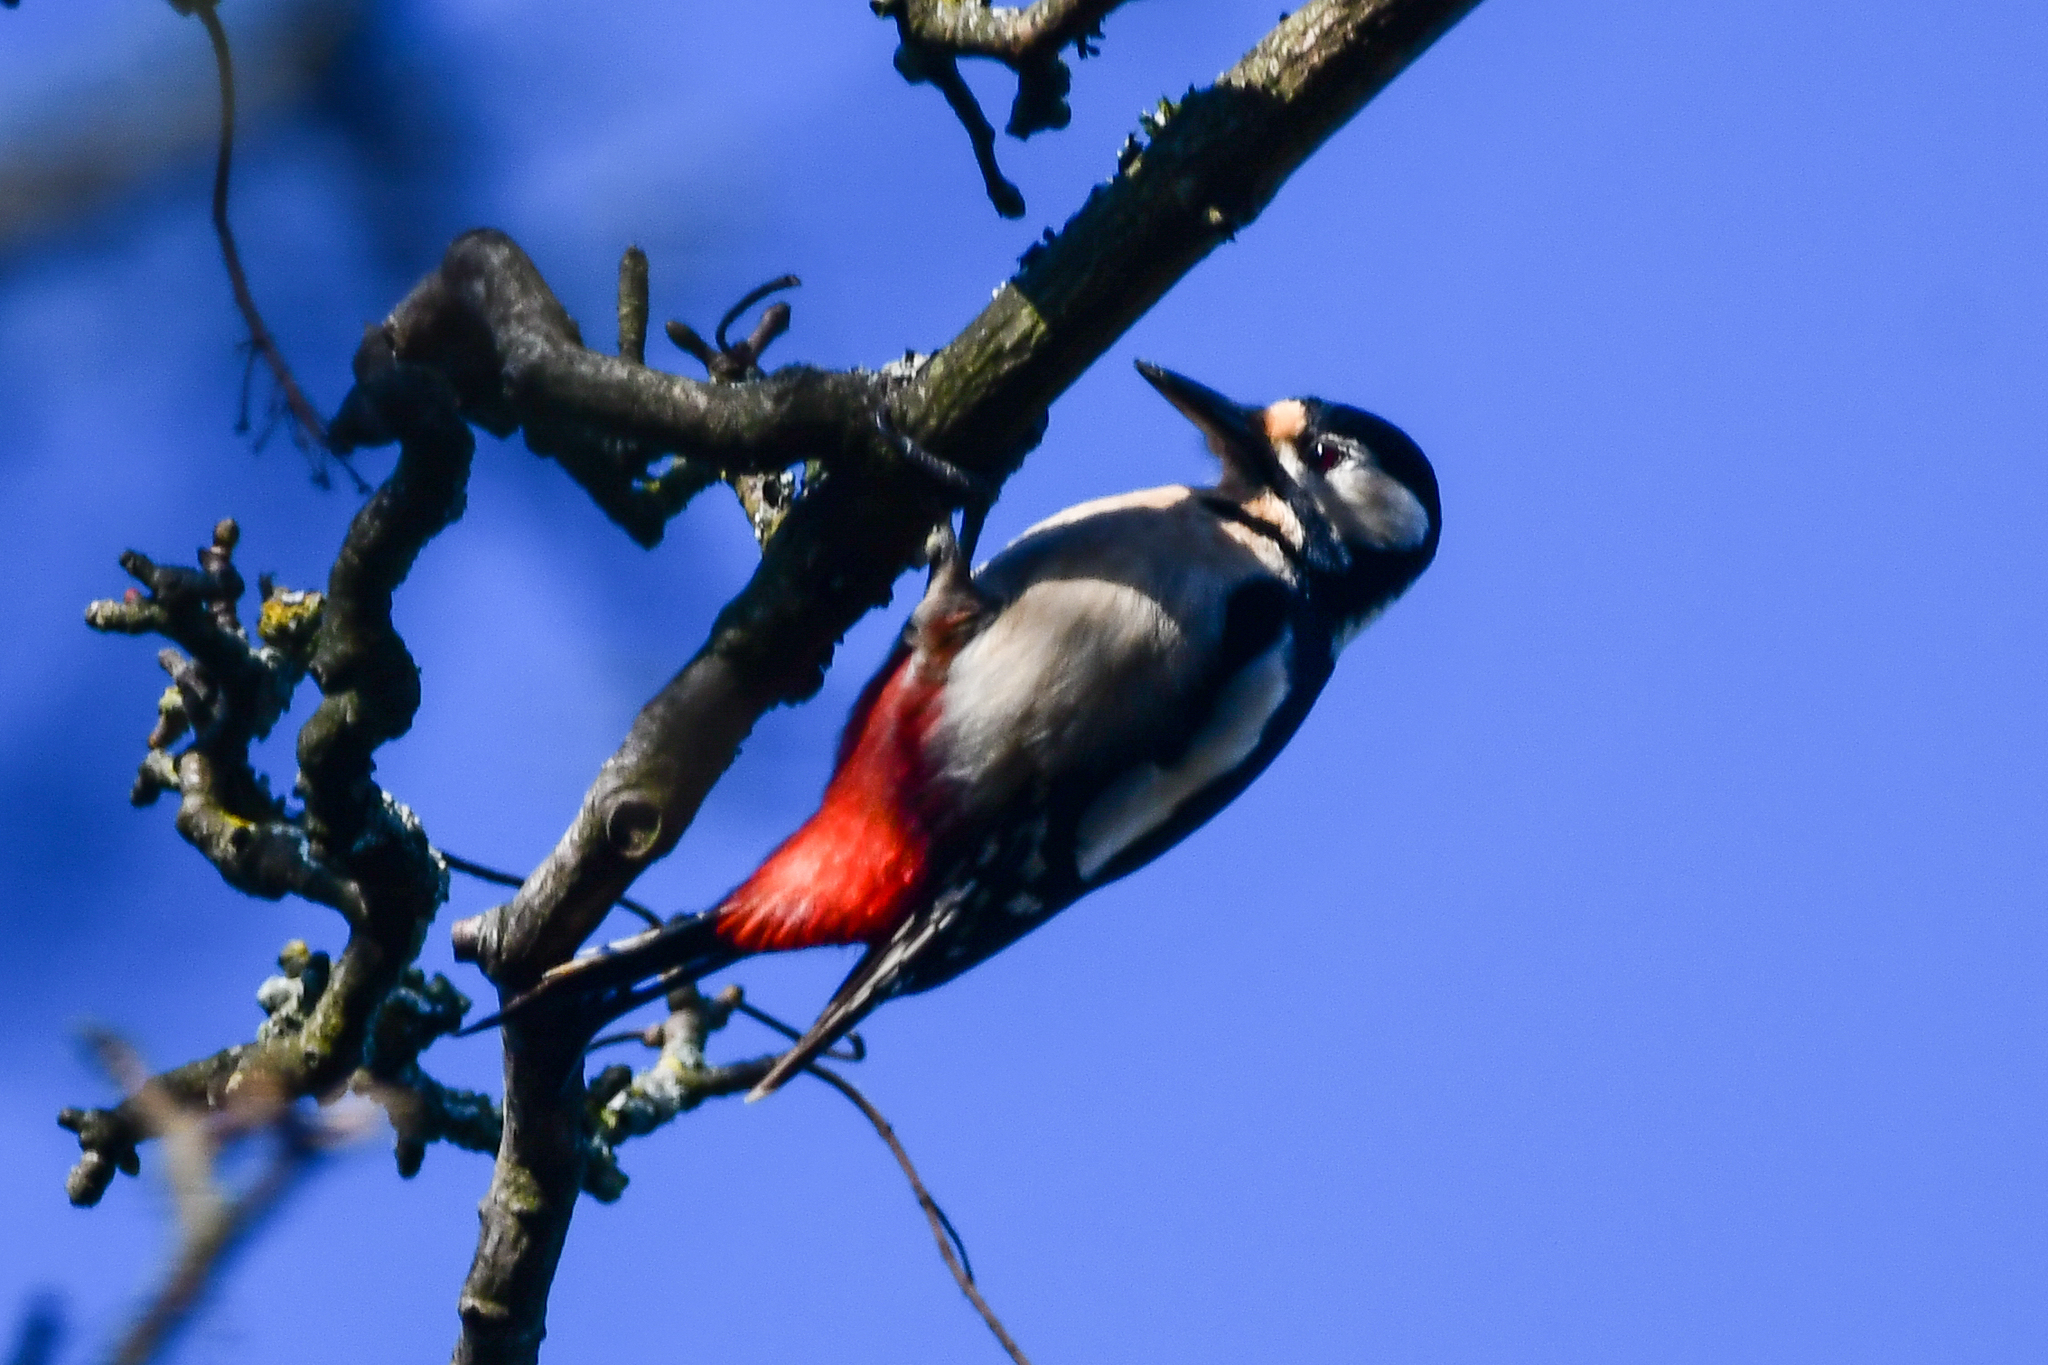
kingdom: Animalia
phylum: Chordata
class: Aves
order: Piciformes
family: Picidae
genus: Dendrocopos
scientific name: Dendrocopos major
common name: Great spotted woodpecker
